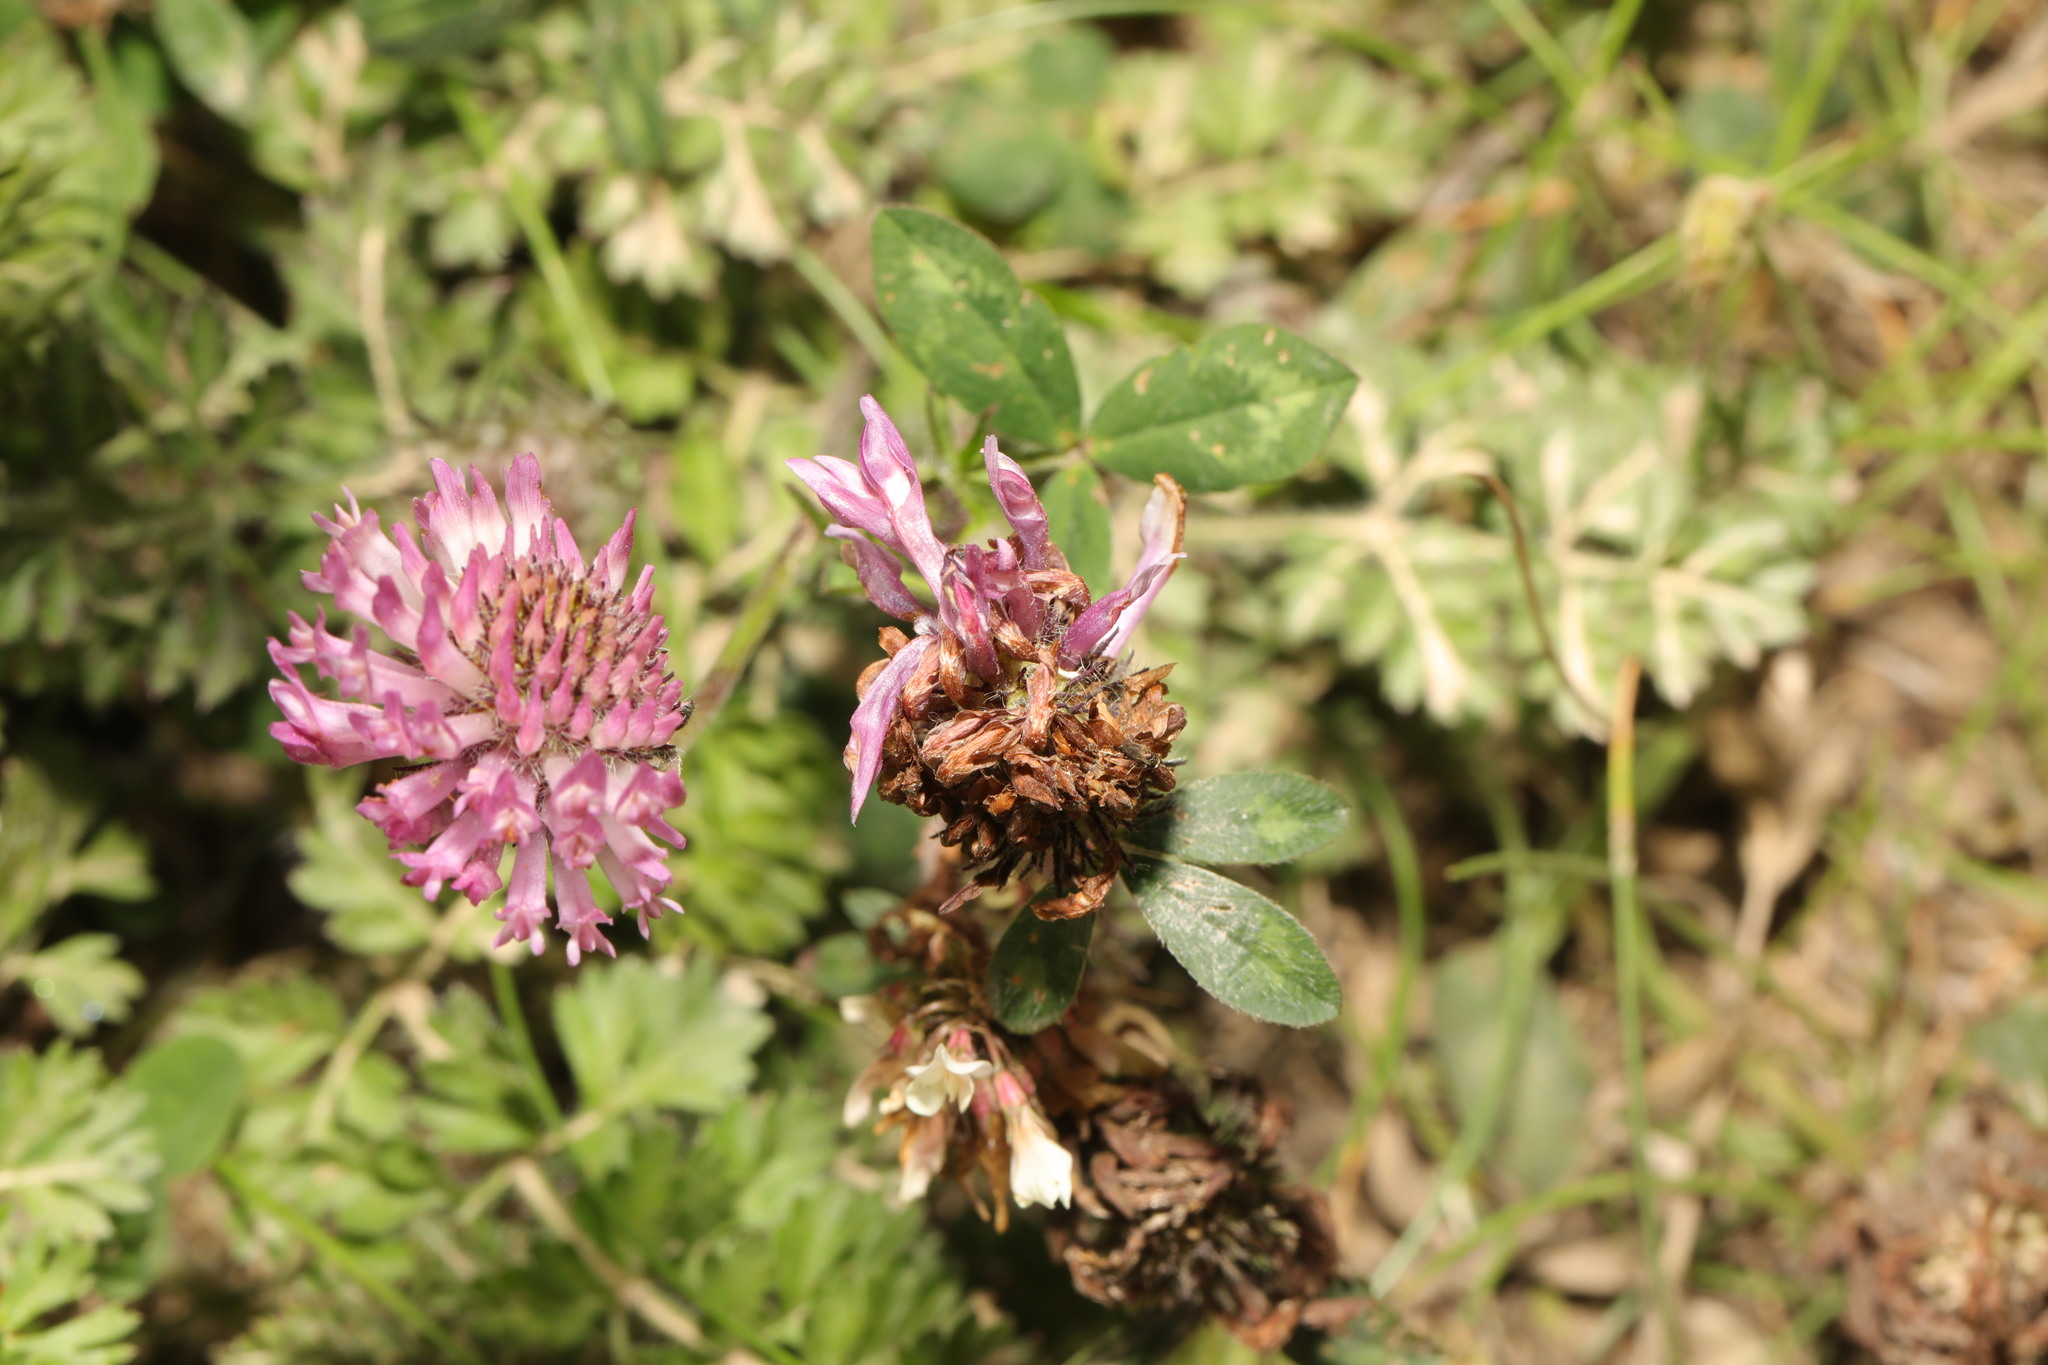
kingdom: Plantae
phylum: Tracheophyta
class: Magnoliopsida
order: Fabales
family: Fabaceae
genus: Trifolium
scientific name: Trifolium pratense
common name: Red clover
